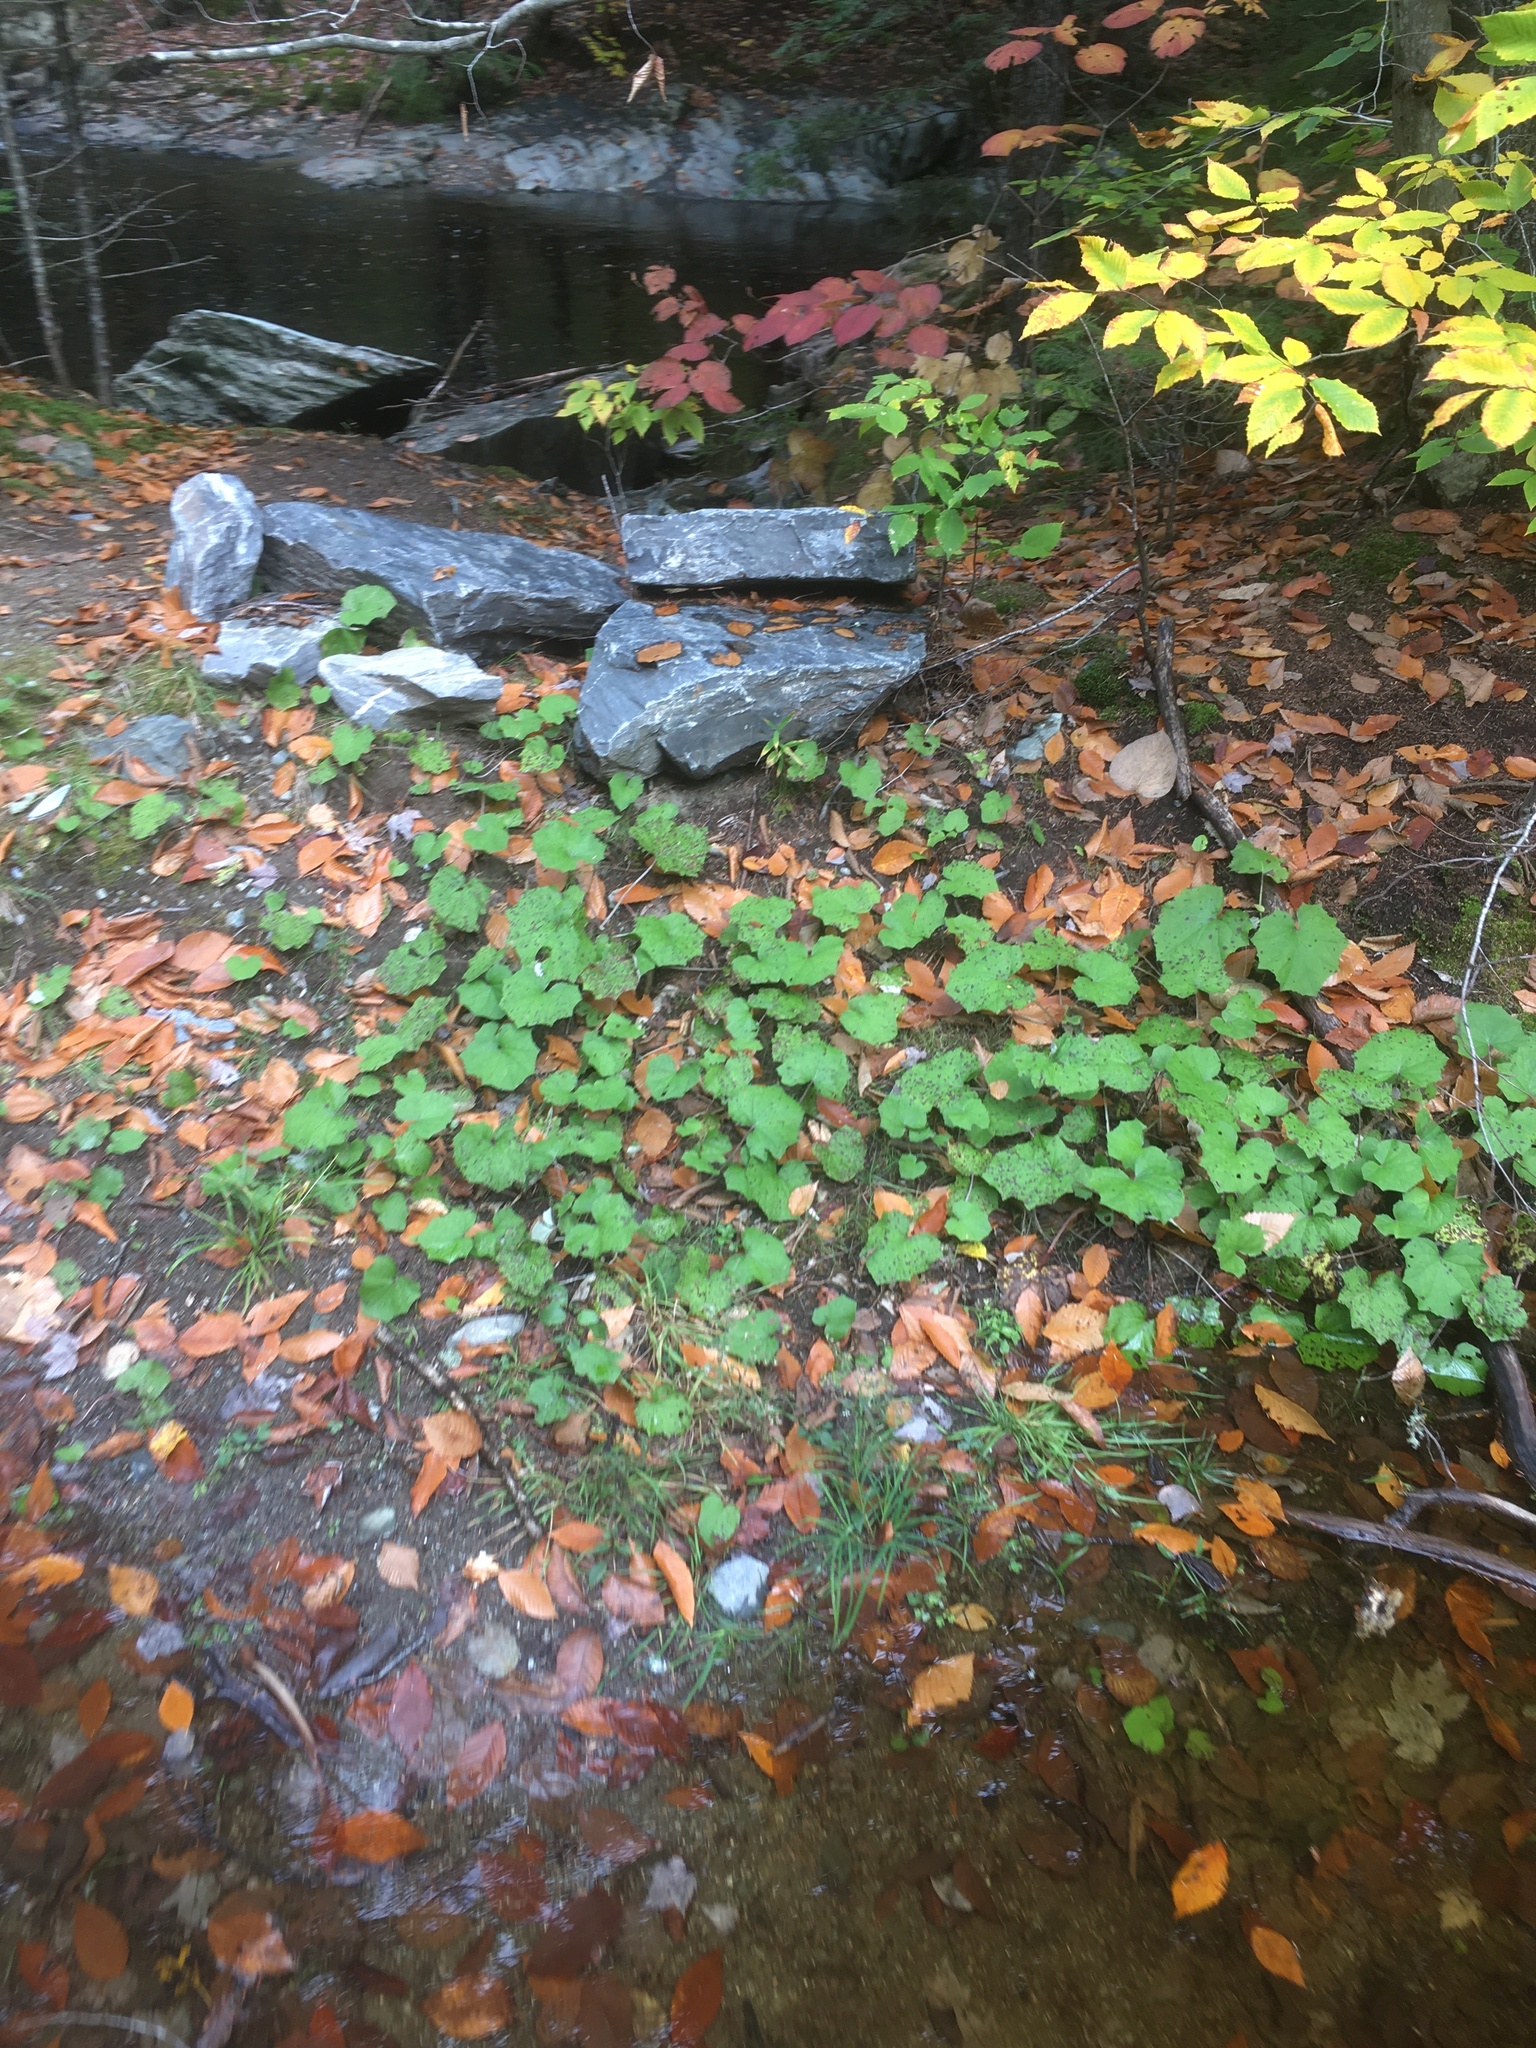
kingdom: Plantae
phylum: Tracheophyta
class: Magnoliopsida
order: Asterales
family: Asteraceae
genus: Tussilago
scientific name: Tussilago farfara
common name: Coltsfoot
